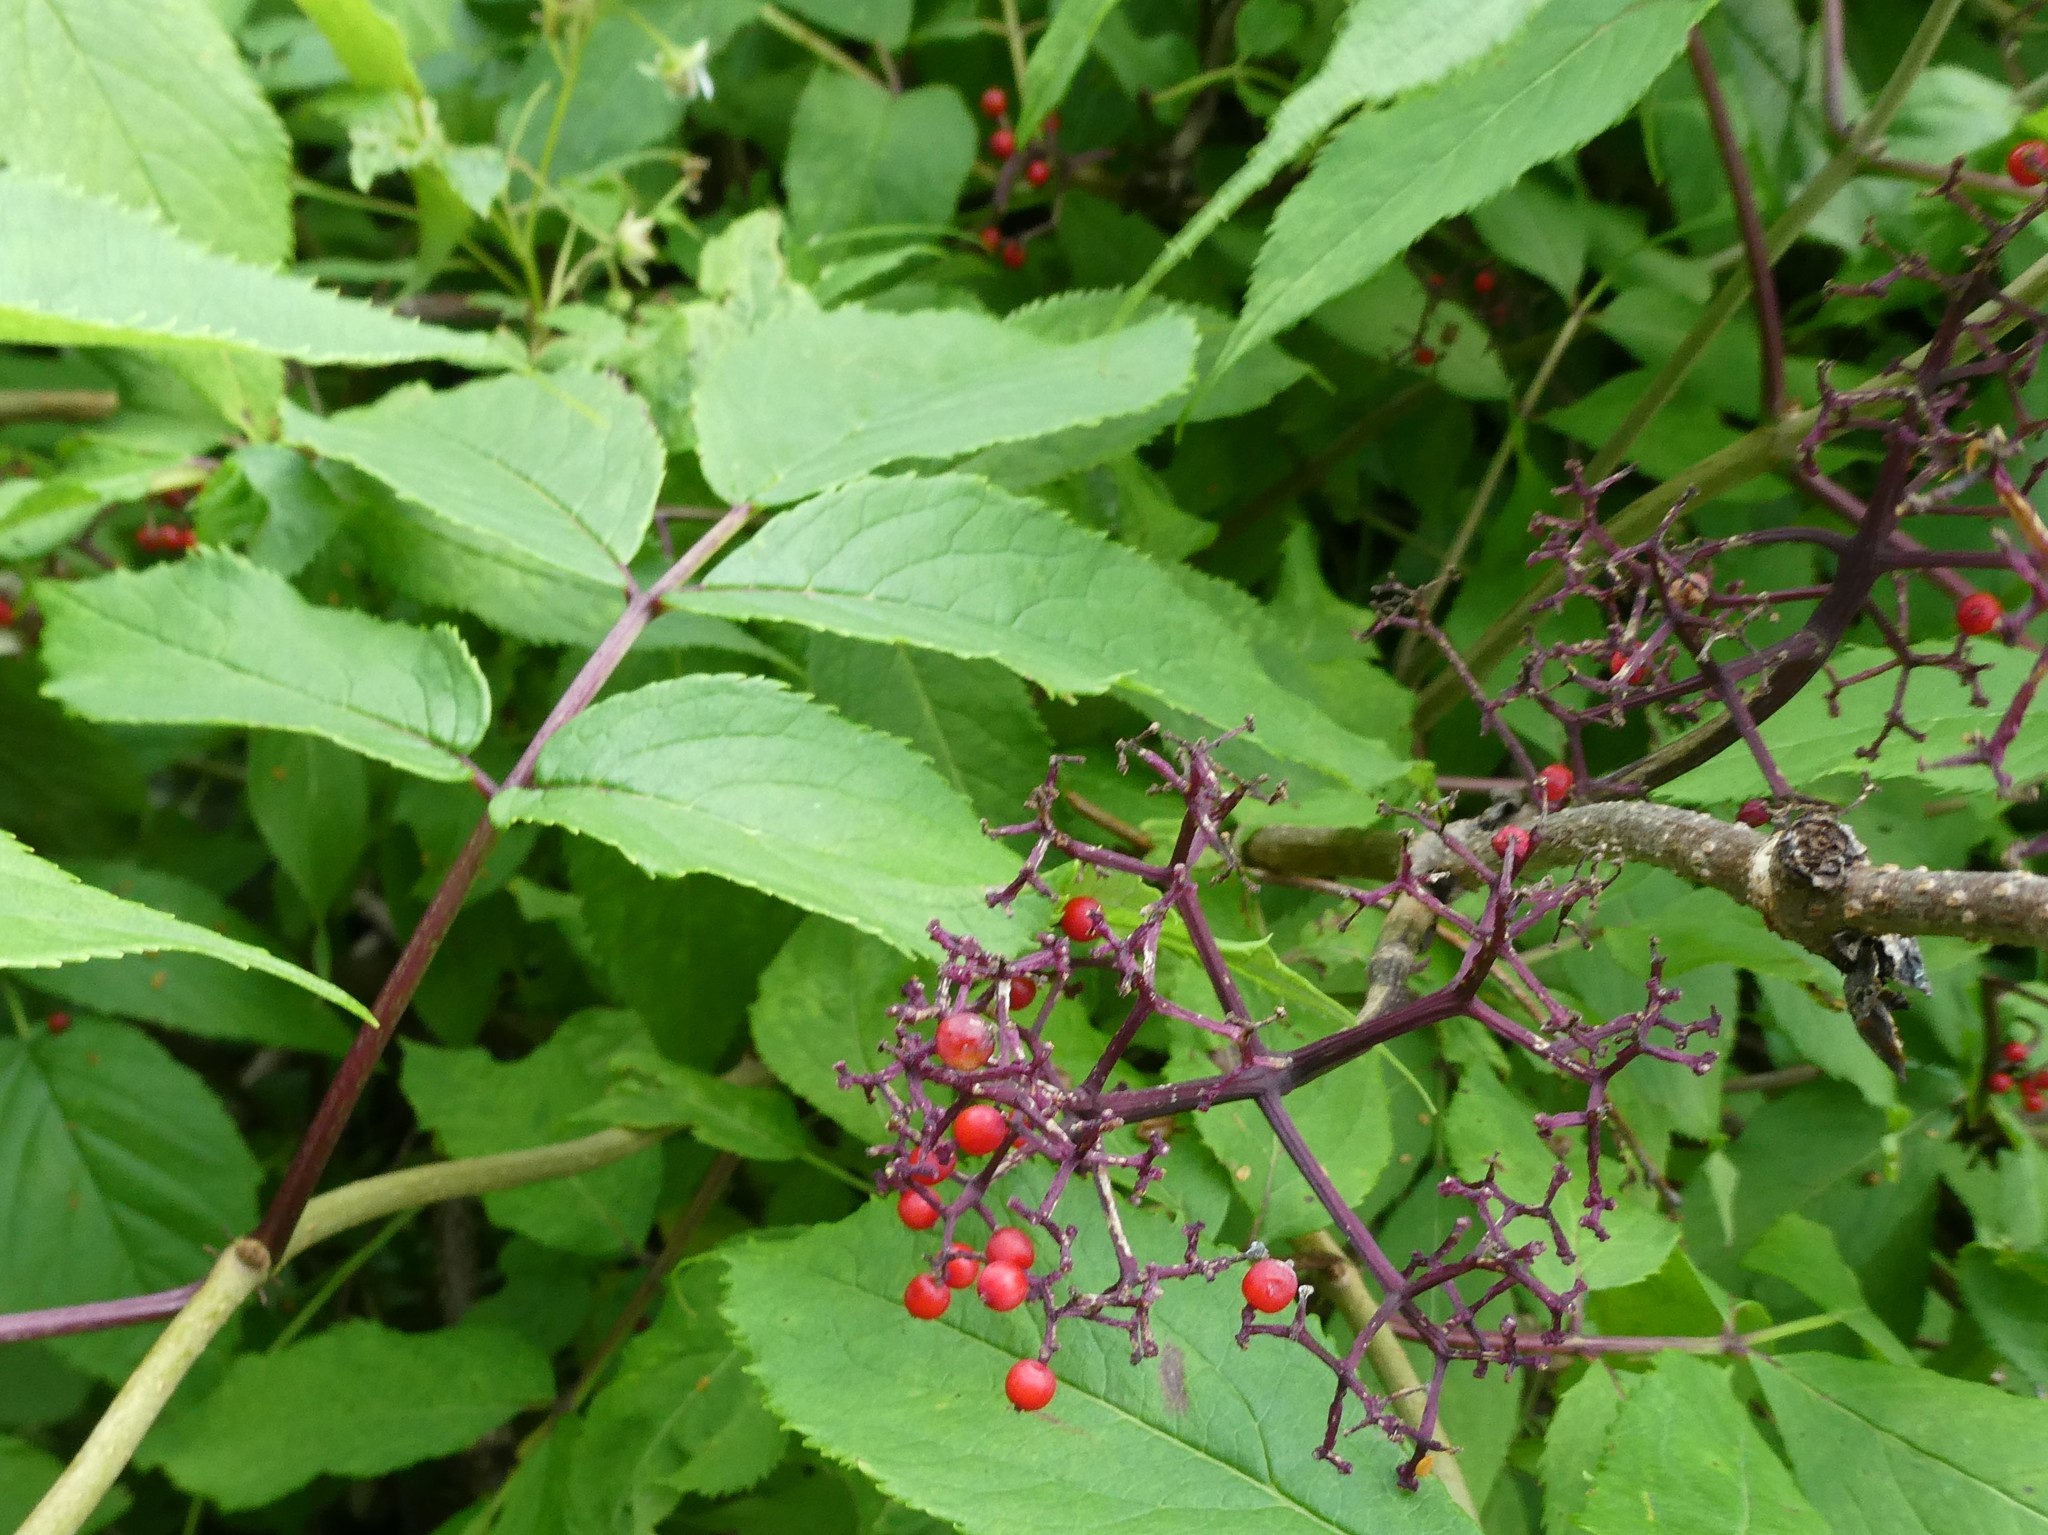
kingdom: Plantae
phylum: Tracheophyta
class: Magnoliopsida
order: Dipsacales
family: Viburnaceae
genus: Sambucus
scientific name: Sambucus racemosa
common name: Red-berried elder
